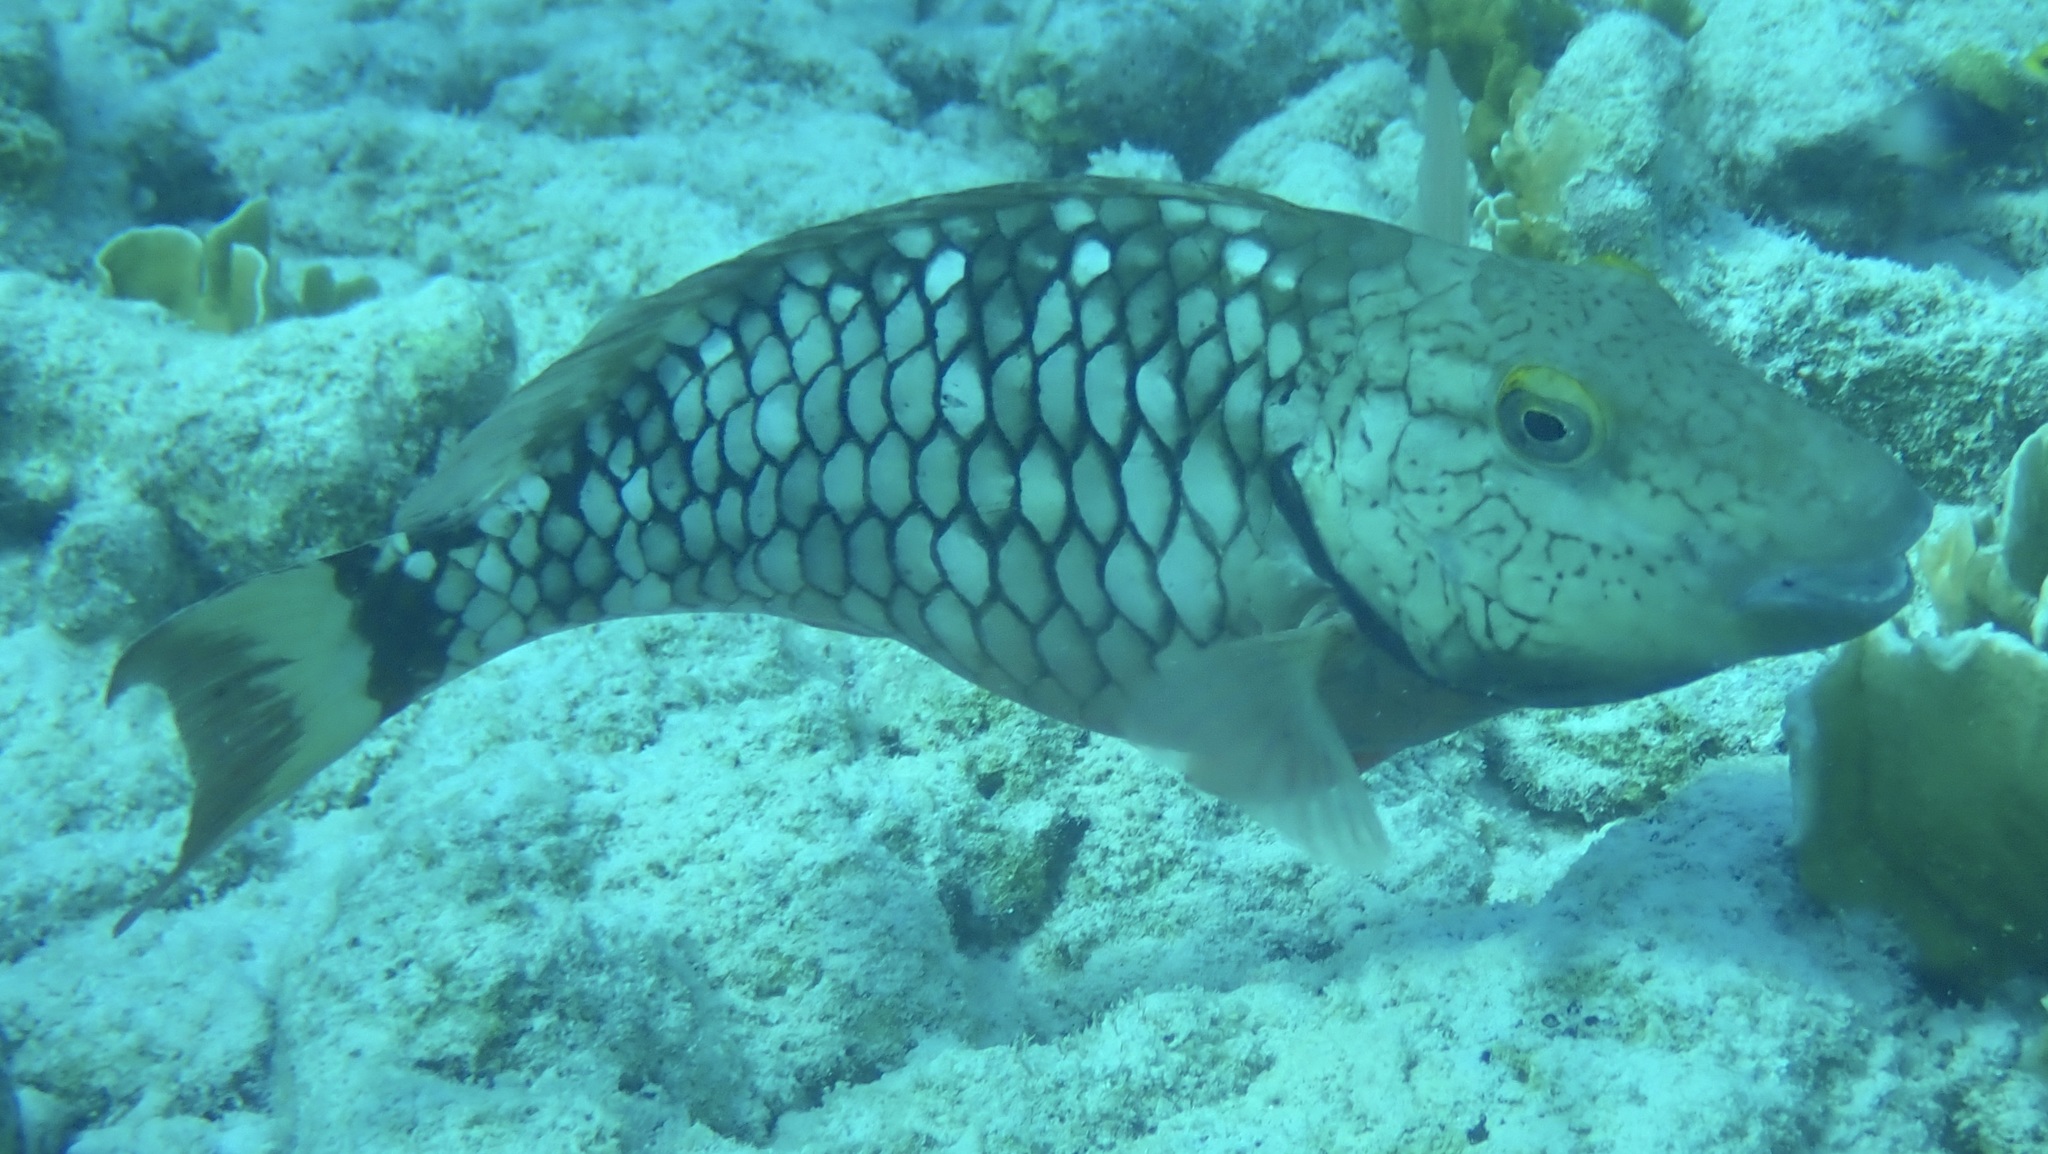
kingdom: Animalia
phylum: Chordata
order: Perciformes
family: Scaridae
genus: Sparisoma
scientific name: Sparisoma viride
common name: Stoplight parrotfish
